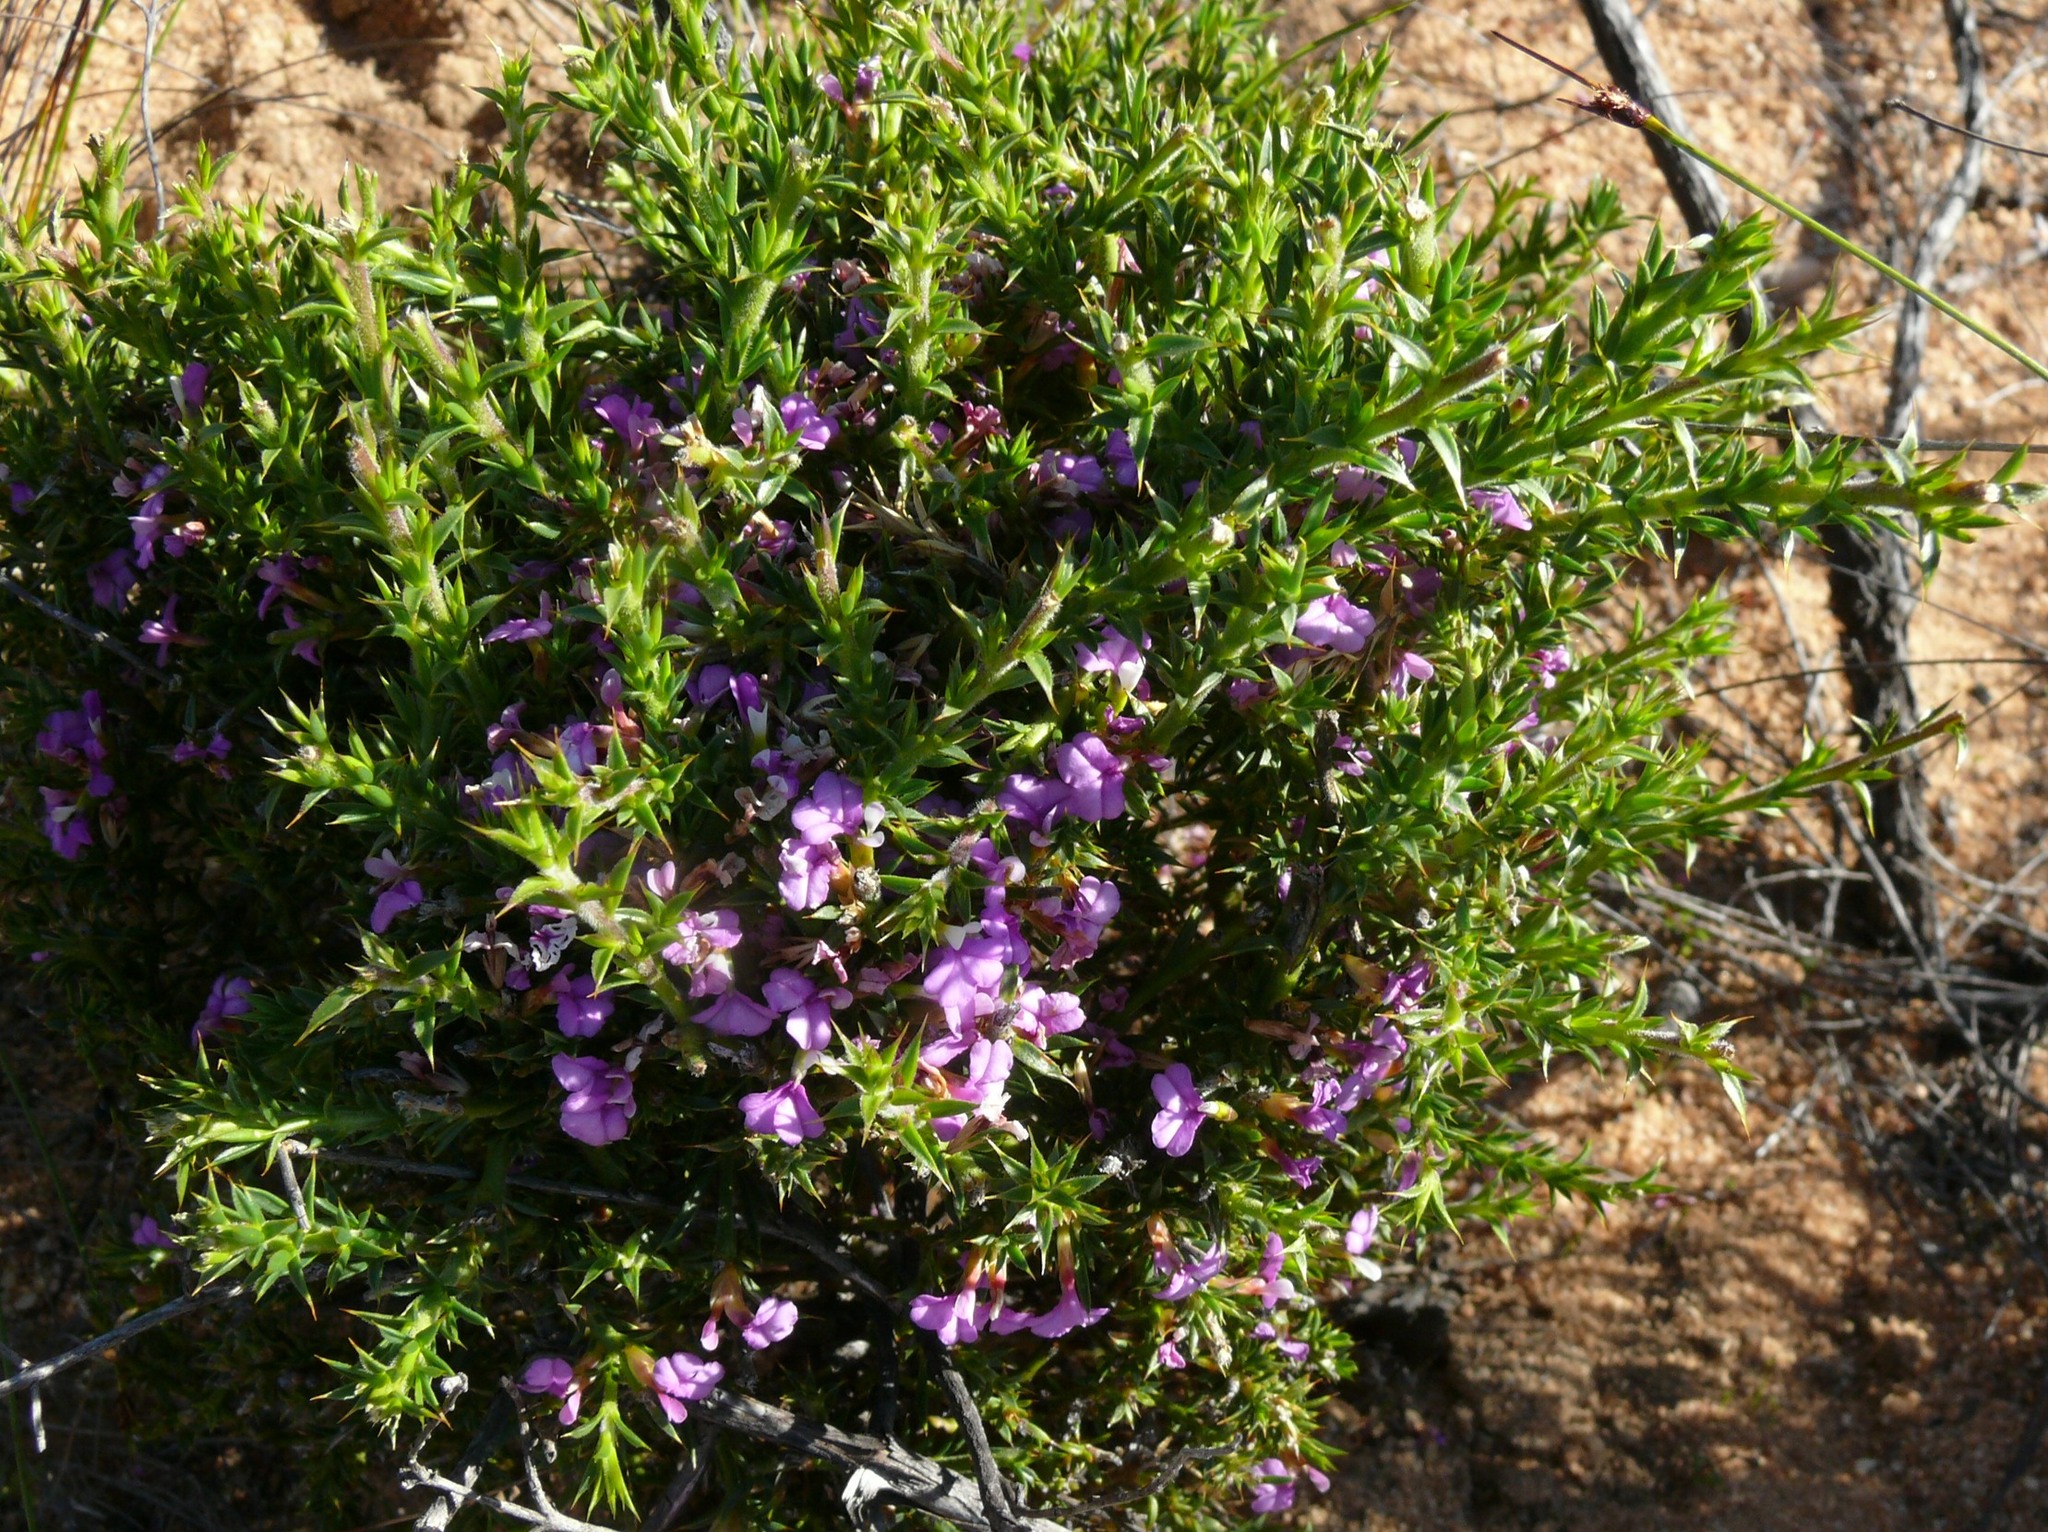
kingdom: Plantae
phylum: Tracheophyta
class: Magnoliopsida
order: Fabales
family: Polygalaceae
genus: Muraltia
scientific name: Muraltia heisteria
